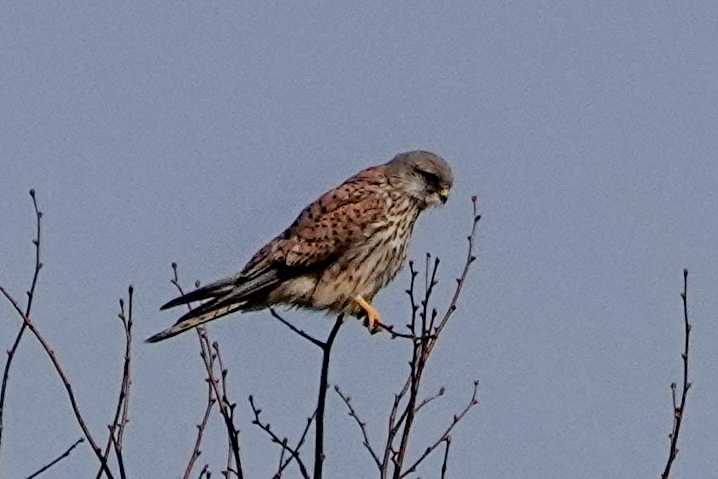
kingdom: Animalia
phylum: Chordata
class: Aves
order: Falconiformes
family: Falconidae
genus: Falco
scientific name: Falco tinnunculus
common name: Common kestrel
